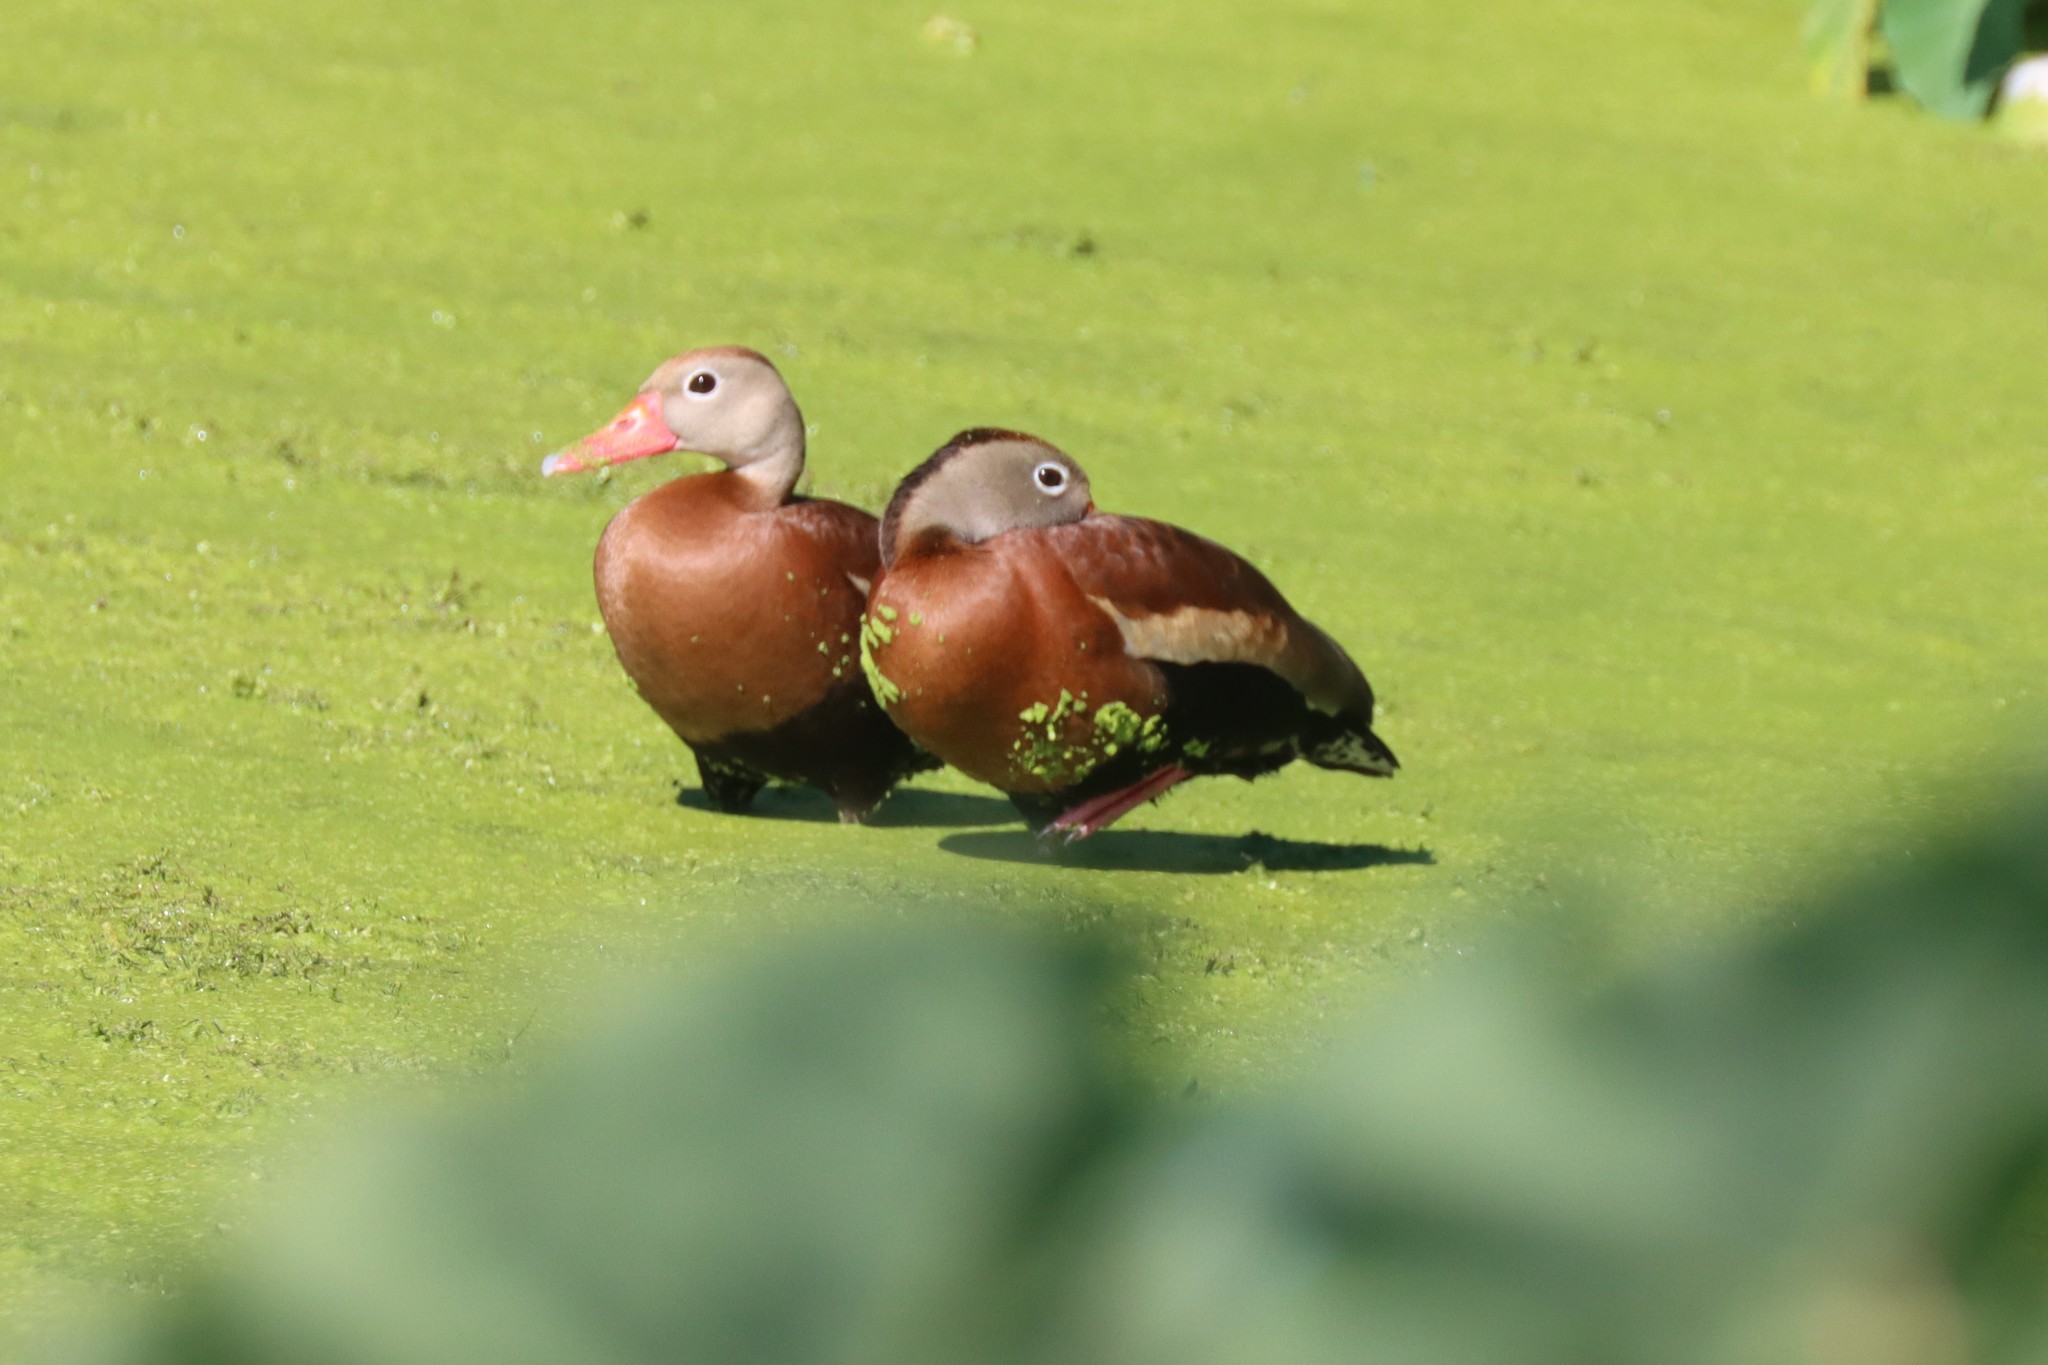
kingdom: Animalia
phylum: Chordata
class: Aves
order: Anseriformes
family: Anatidae
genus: Dendrocygna
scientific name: Dendrocygna autumnalis
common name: Black-bellied whistling duck
